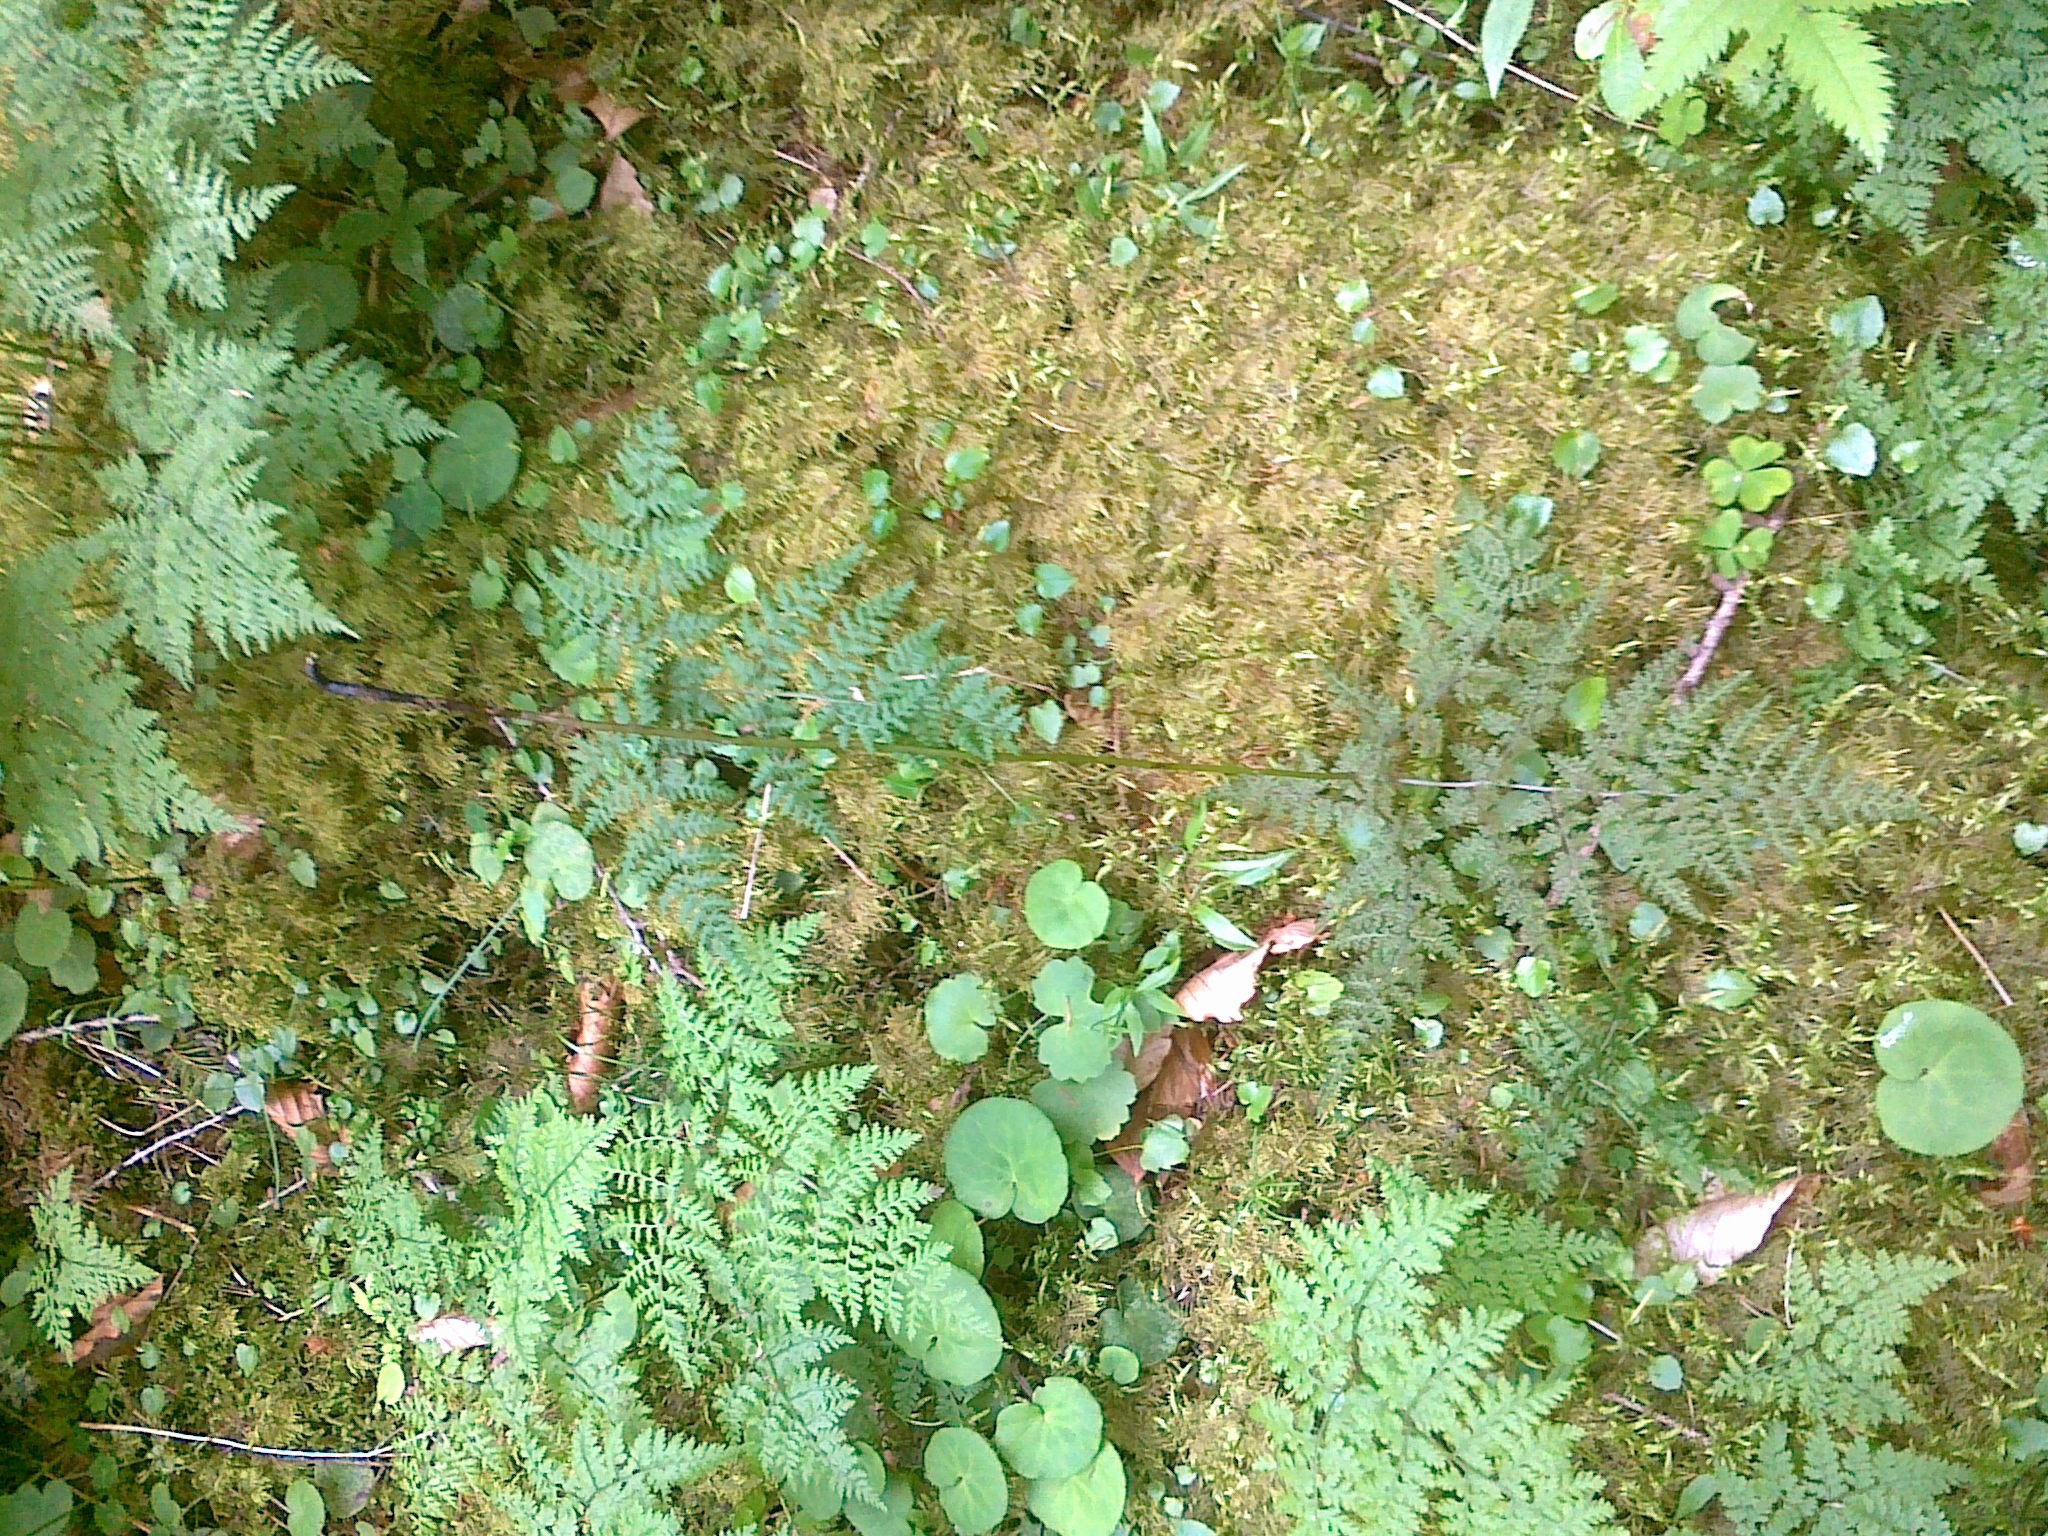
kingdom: Plantae
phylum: Tracheophyta
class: Polypodiopsida
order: Polypodiales
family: Cystopteridaceae
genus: Cystopteris
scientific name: Cystopteris montana
